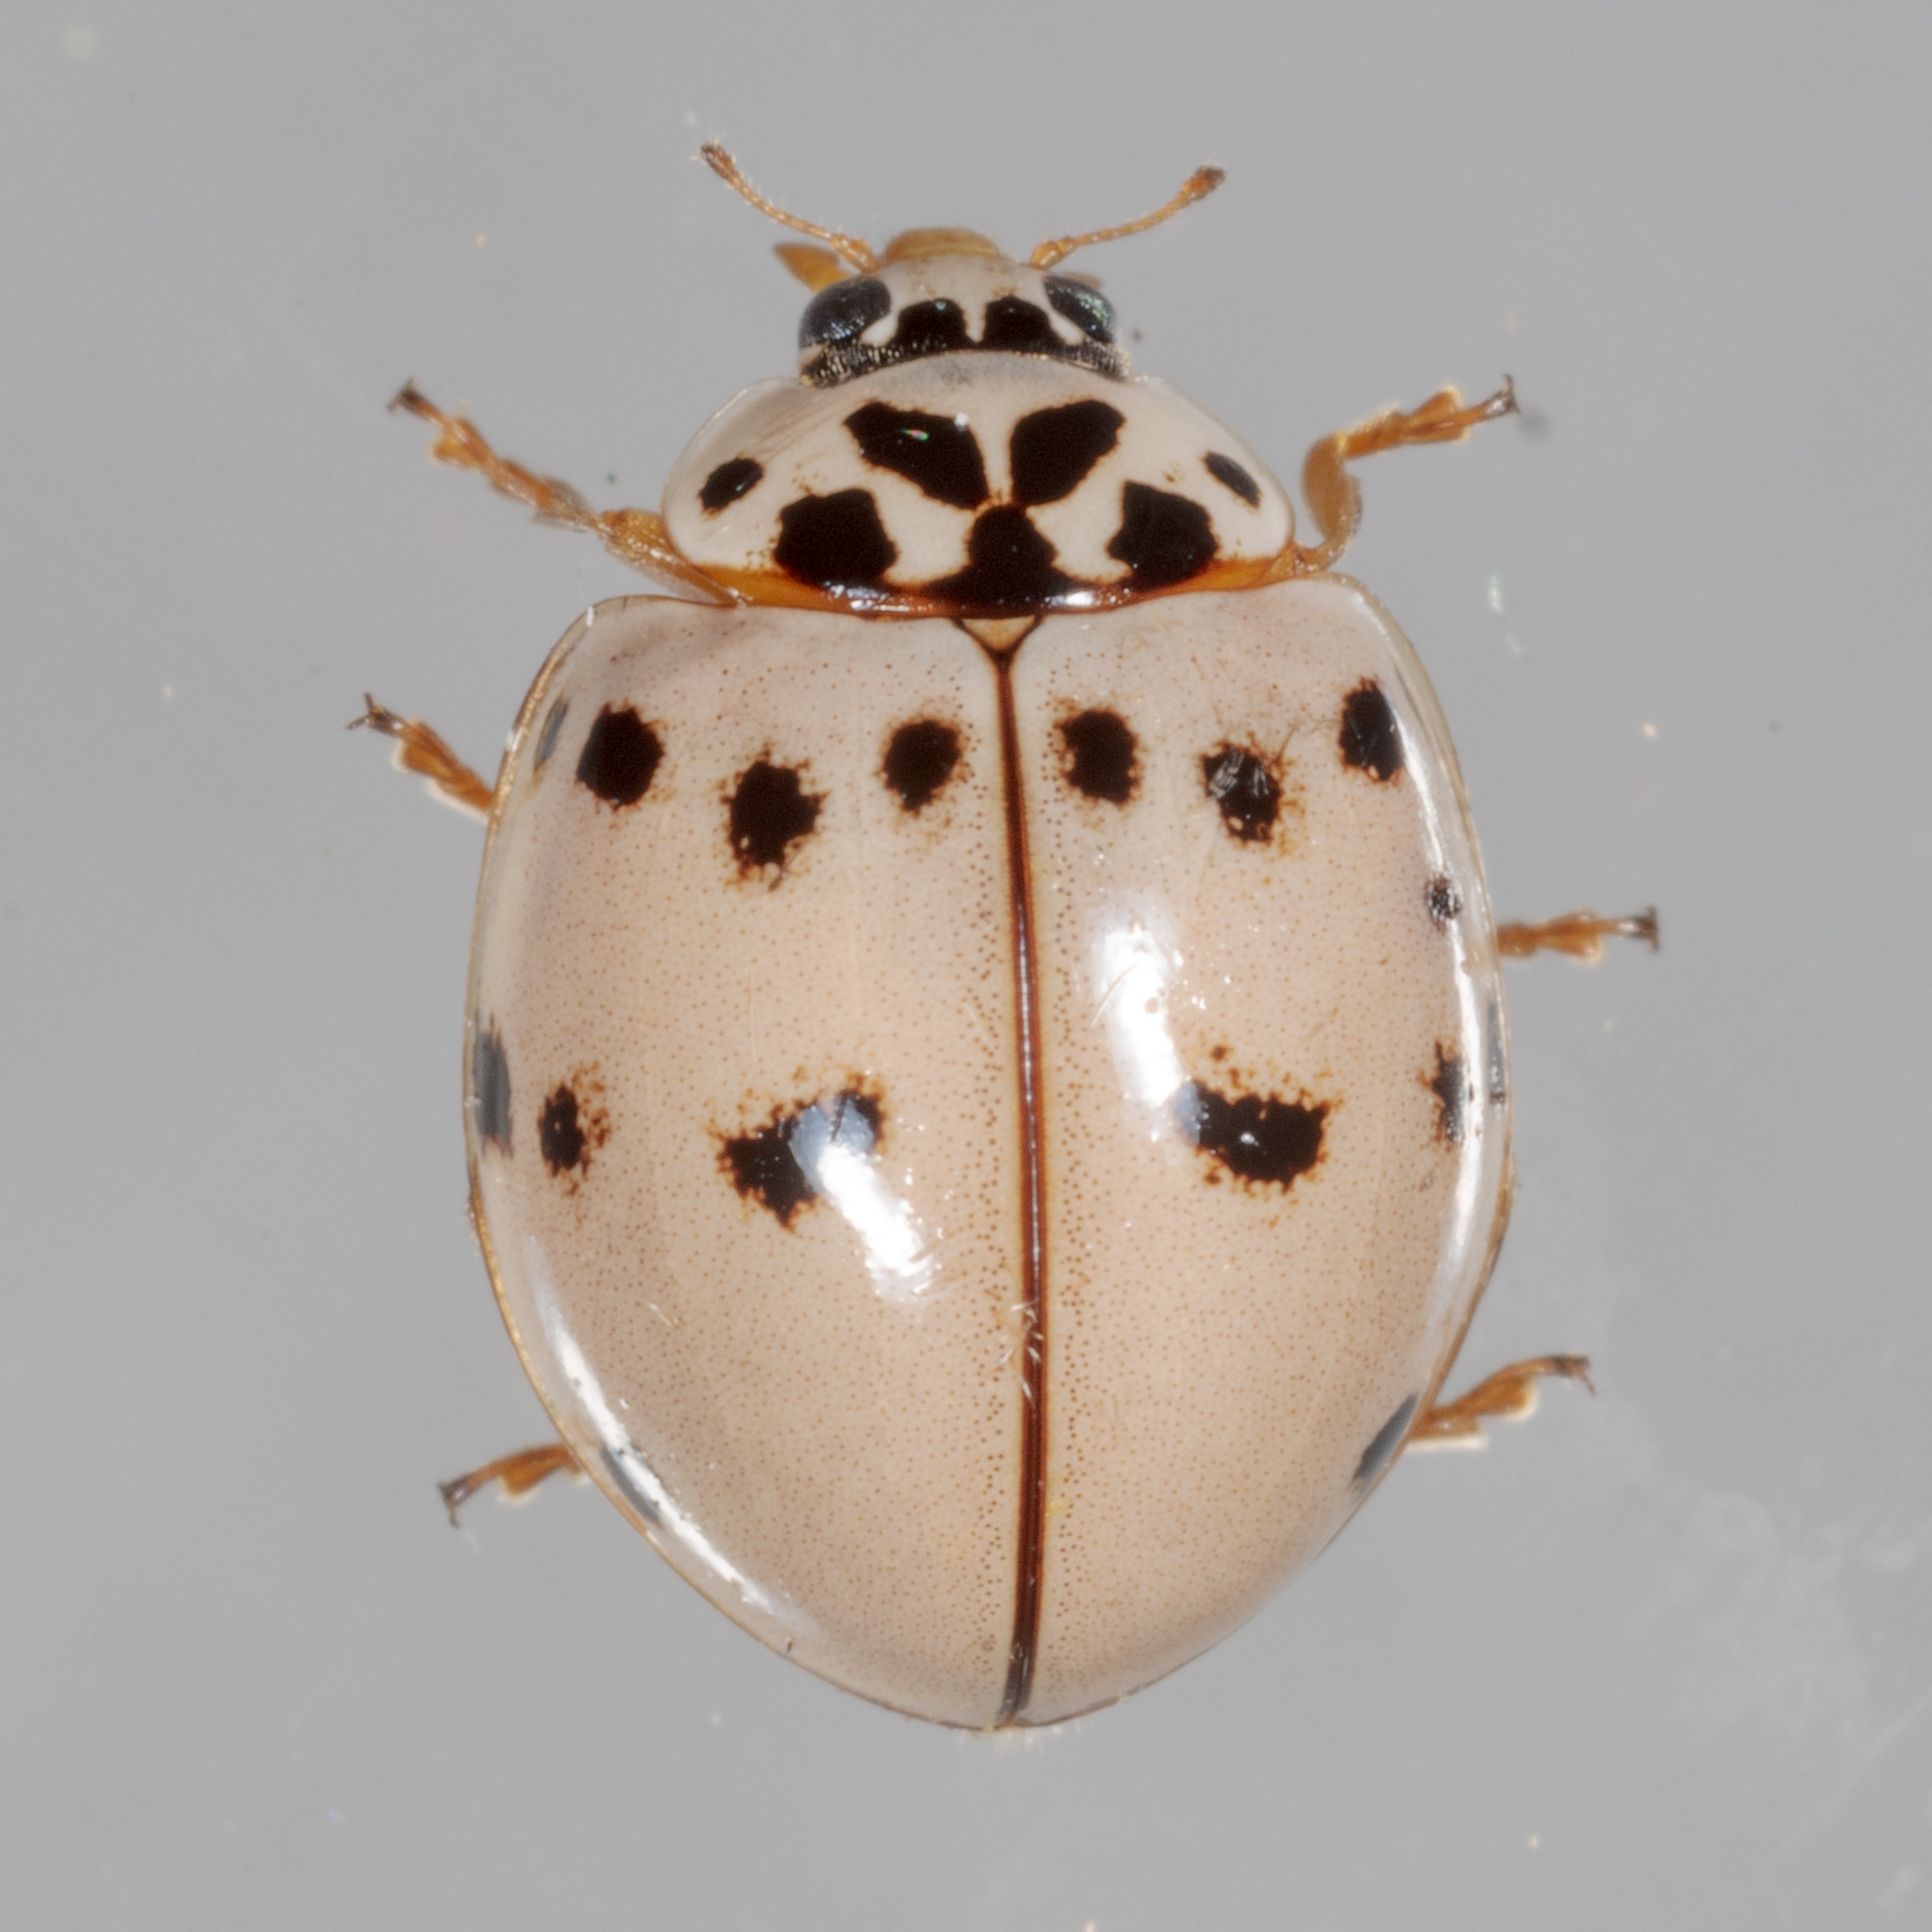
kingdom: Animalia
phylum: Arthropoda
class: Insecta
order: Coleoptera
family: Coccinellidae
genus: Olla
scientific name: Olla v-nigrum
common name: Ashy gray lady beetle
